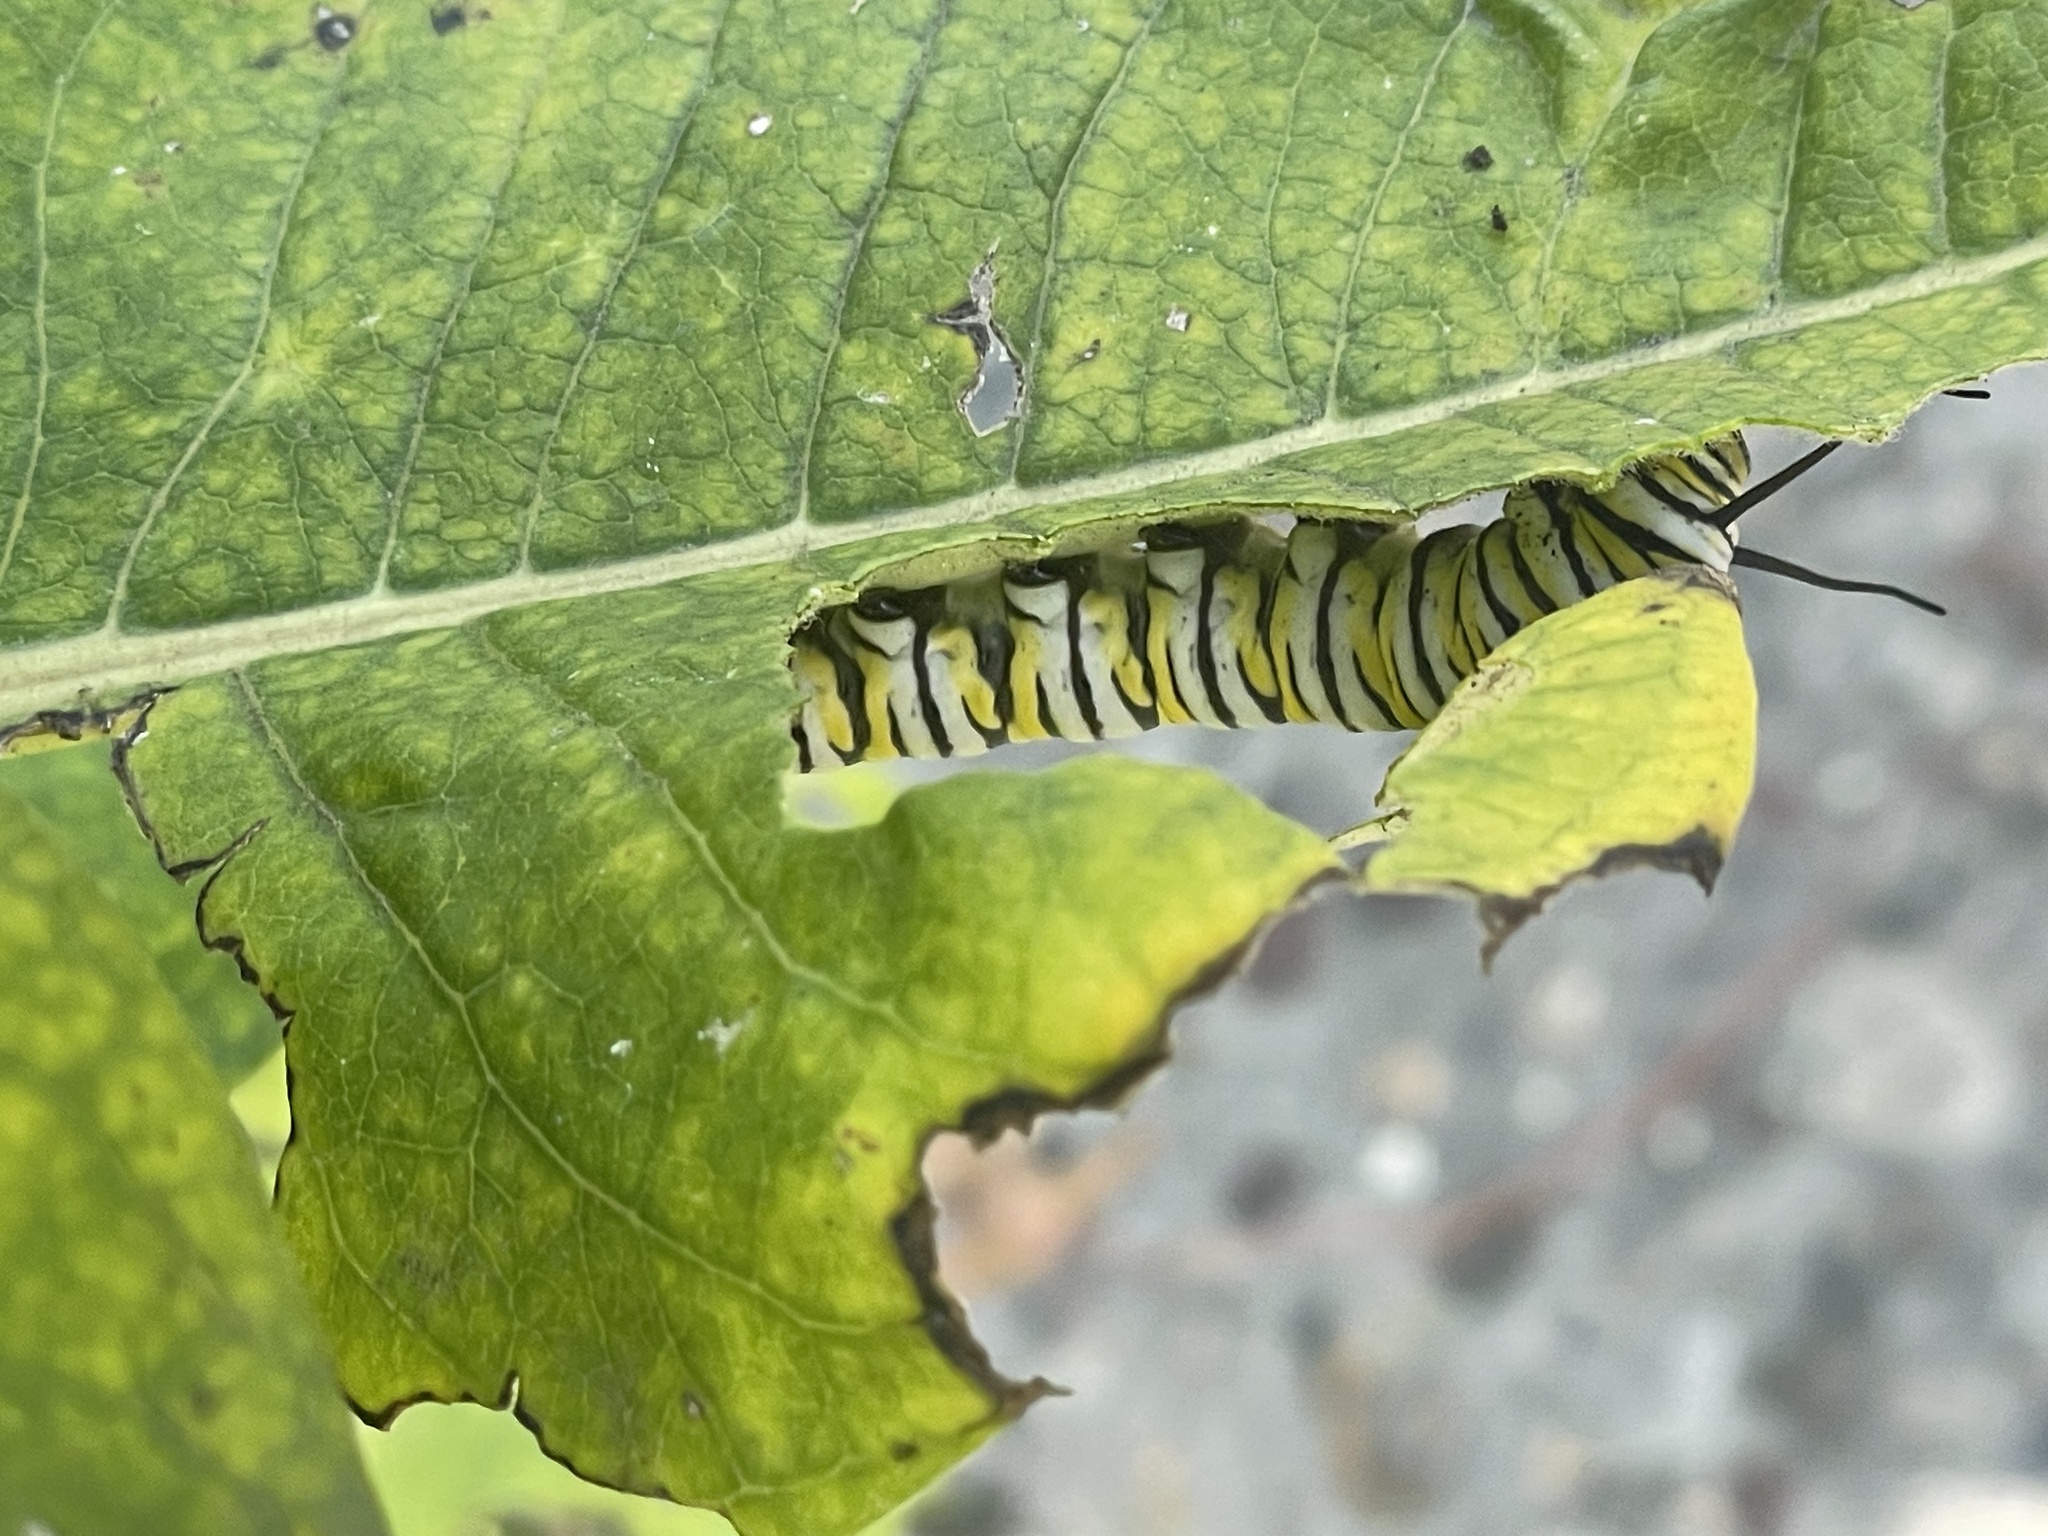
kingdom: Animalia
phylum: Arthropoda
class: Insecta
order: Lepidoptera
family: Nymphalidae
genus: Danaus
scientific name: Danaus plexippus
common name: Monarch
